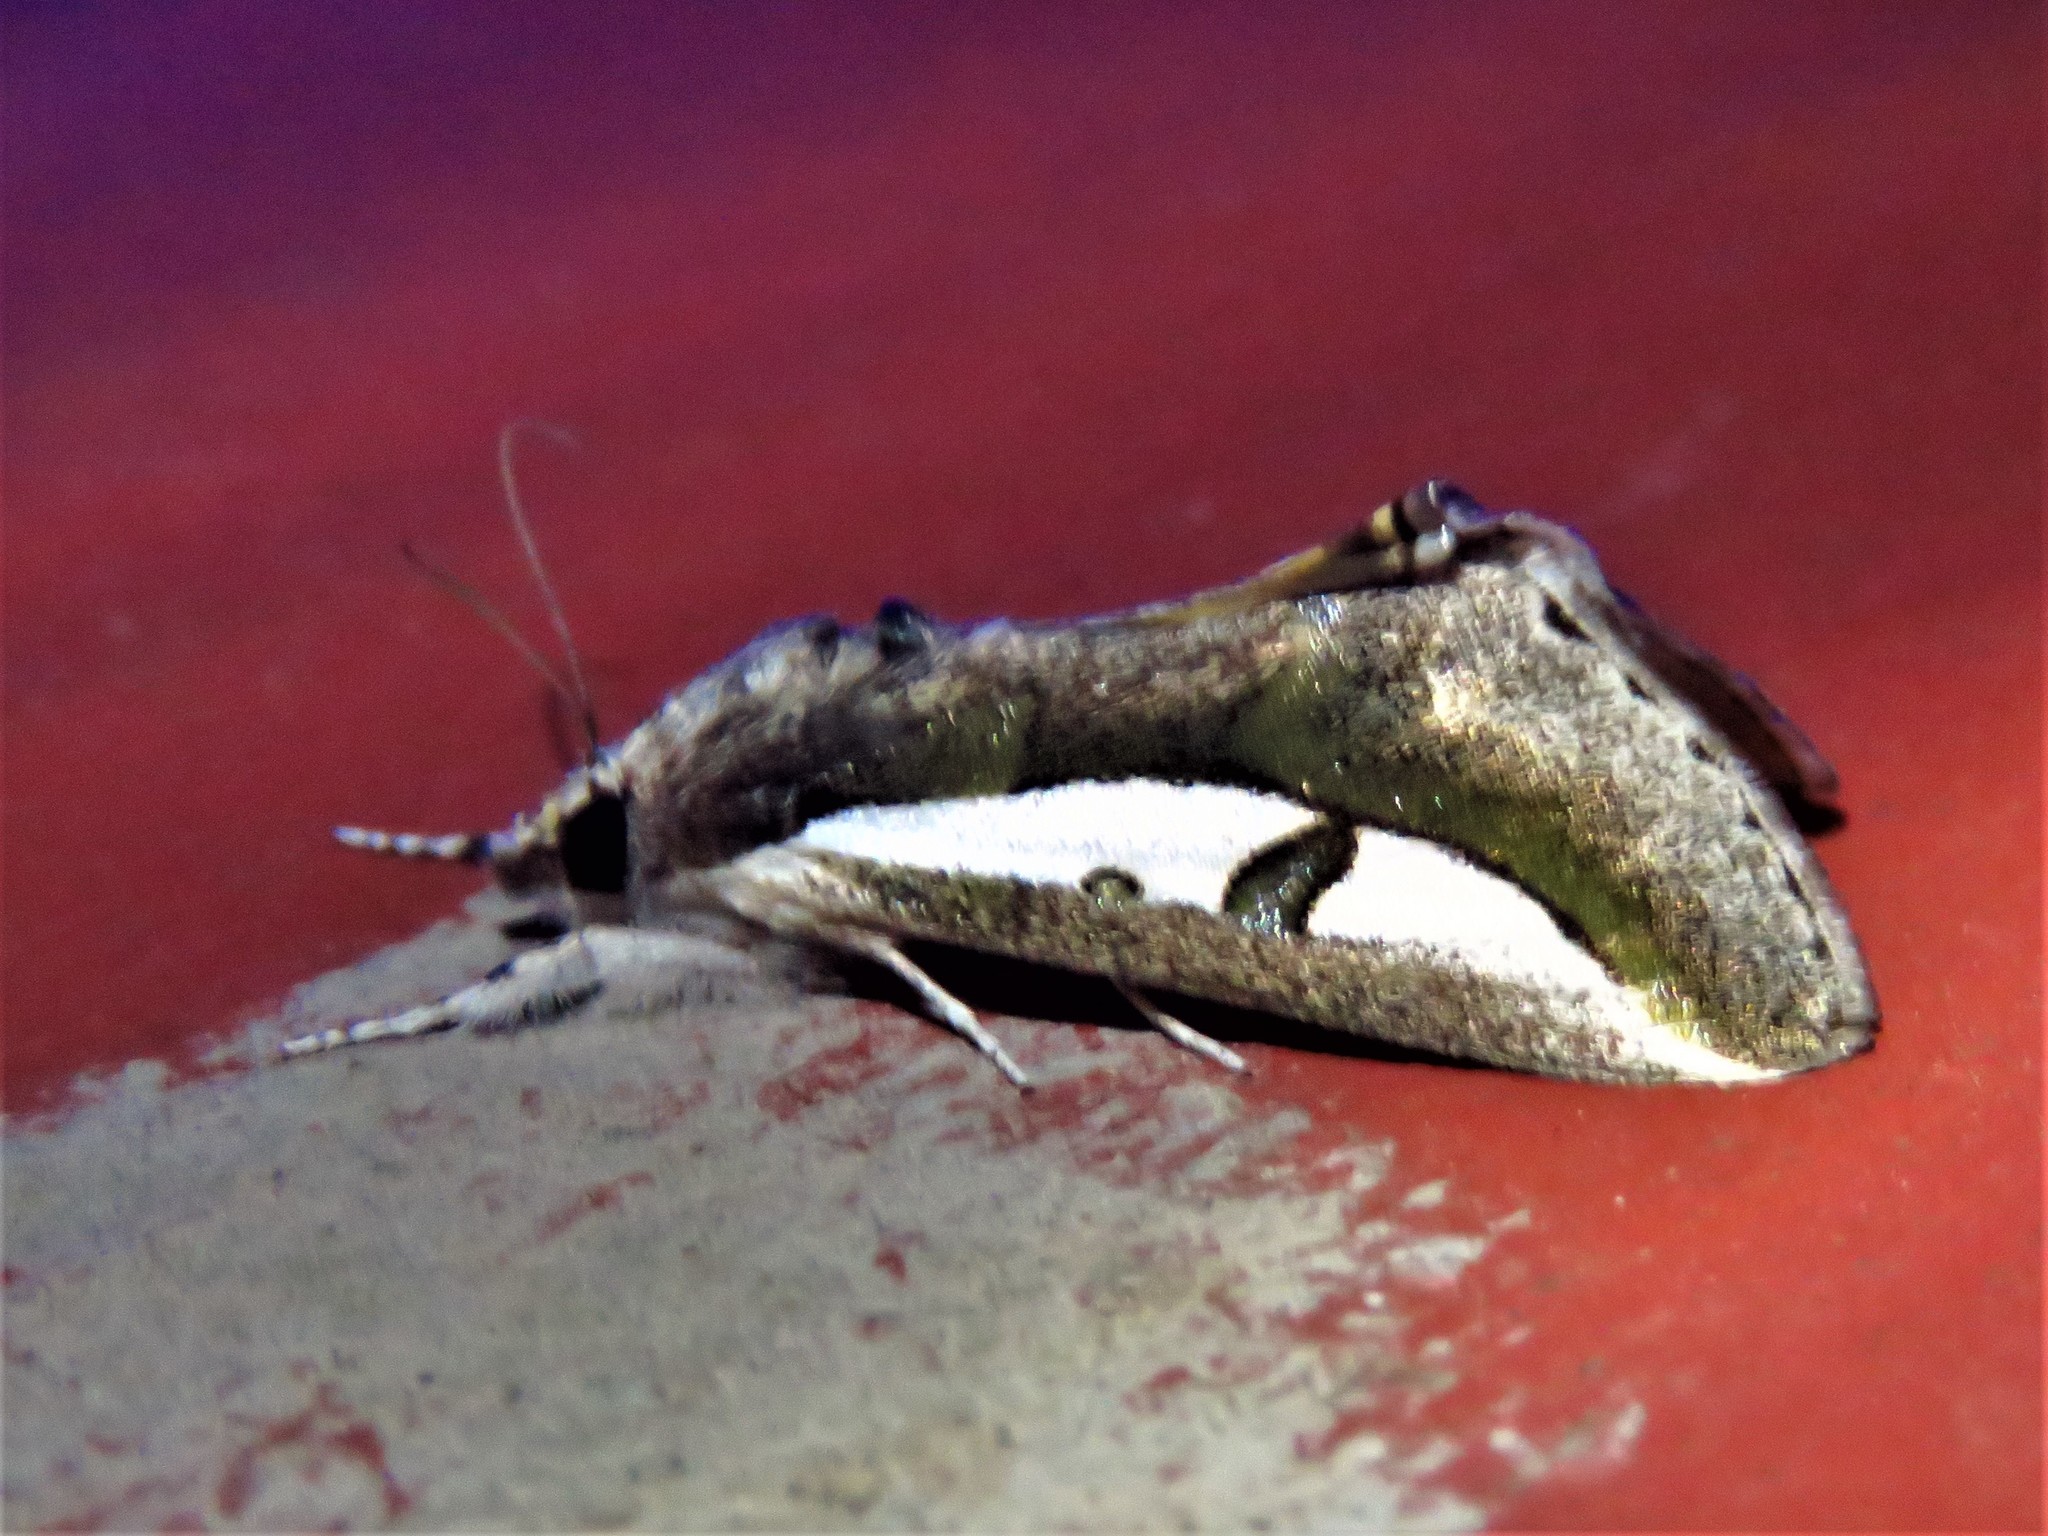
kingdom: Animalia
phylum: Arthropoda
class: Insecta
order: Lepidoptera
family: Noctuidae
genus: Euscirrhopterus
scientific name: Euscirrhopterus poeyi
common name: Cutworm moth
